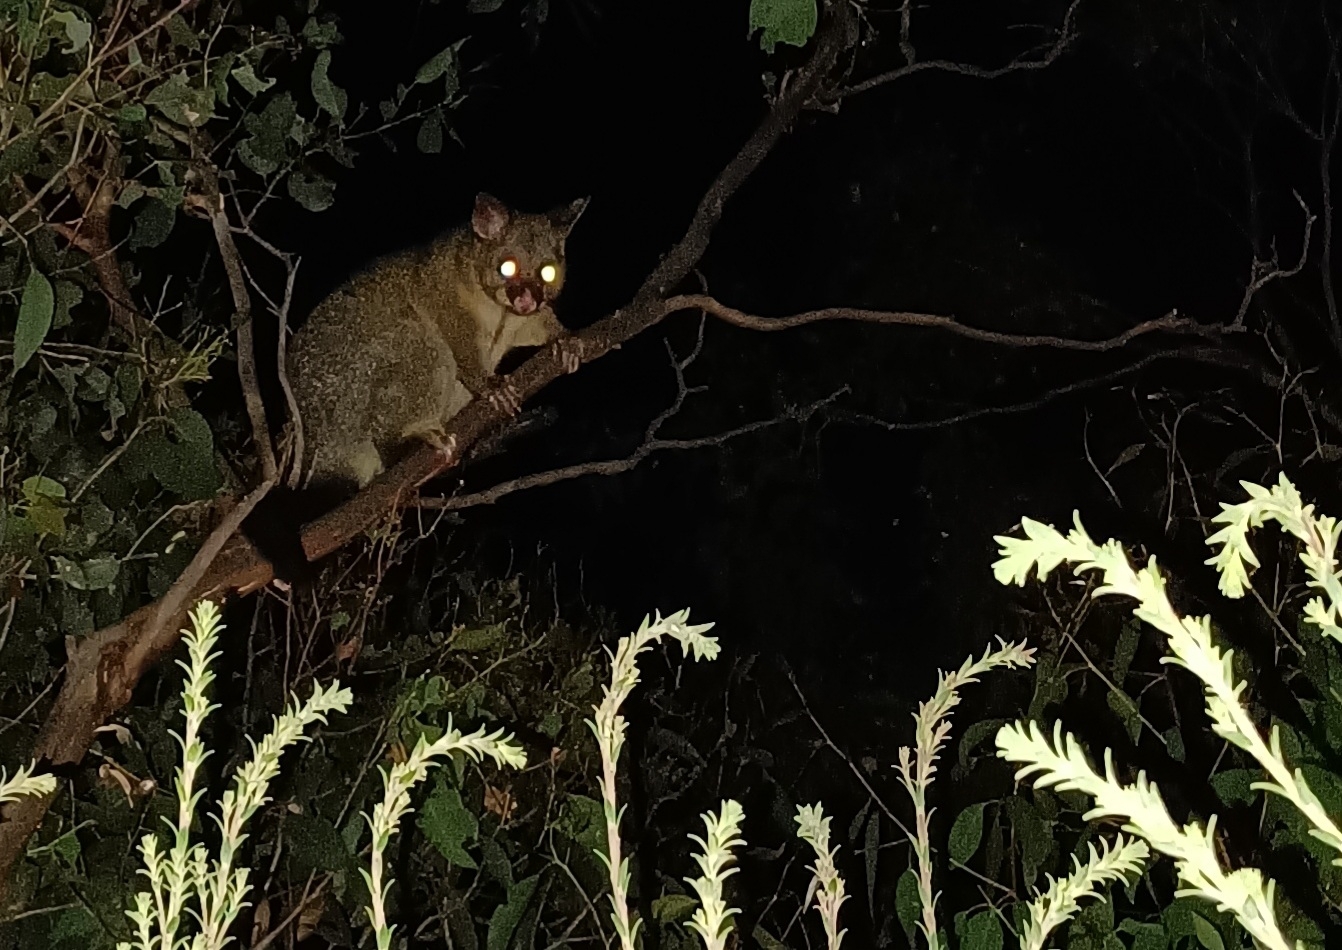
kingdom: Animalia
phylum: Chordata
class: Mammalia
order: Diprotodontia
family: Phalangeridae
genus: Trichosurus
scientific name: Trichosurus vulpecula
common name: Common brushtail
